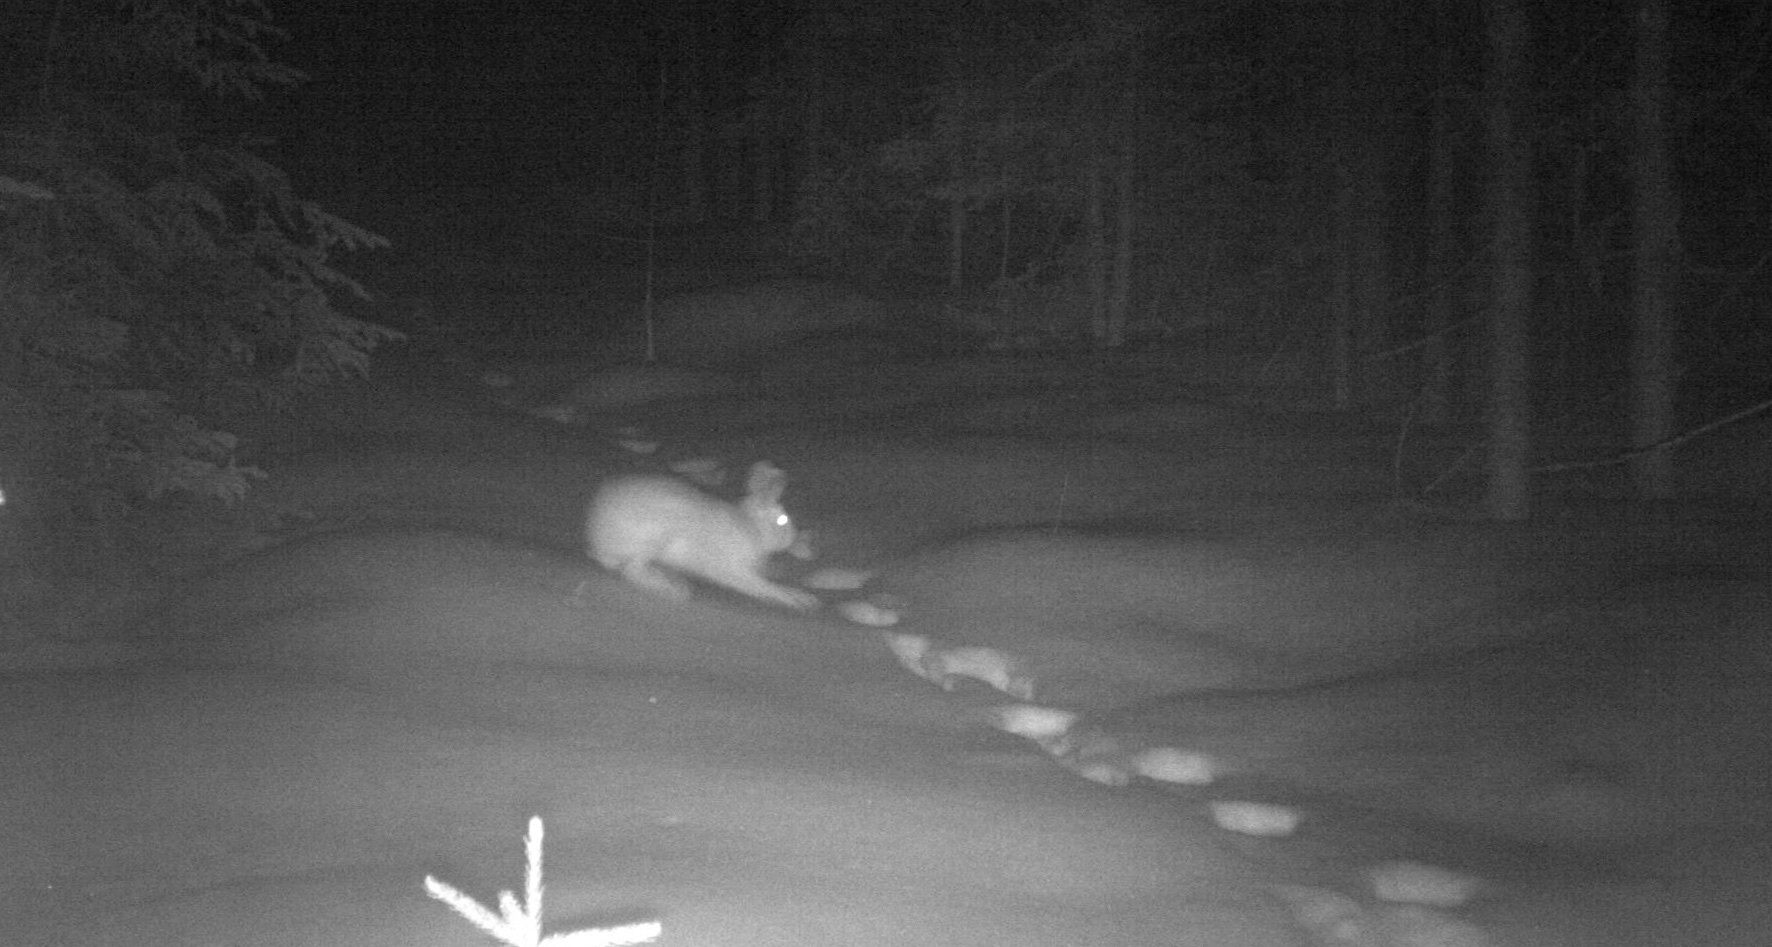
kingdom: Animalia
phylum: Chordata
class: Mammalia
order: Lagomorpha
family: Leporidae
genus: Lepus
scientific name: Lepus americanus
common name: Snowshoe hare
